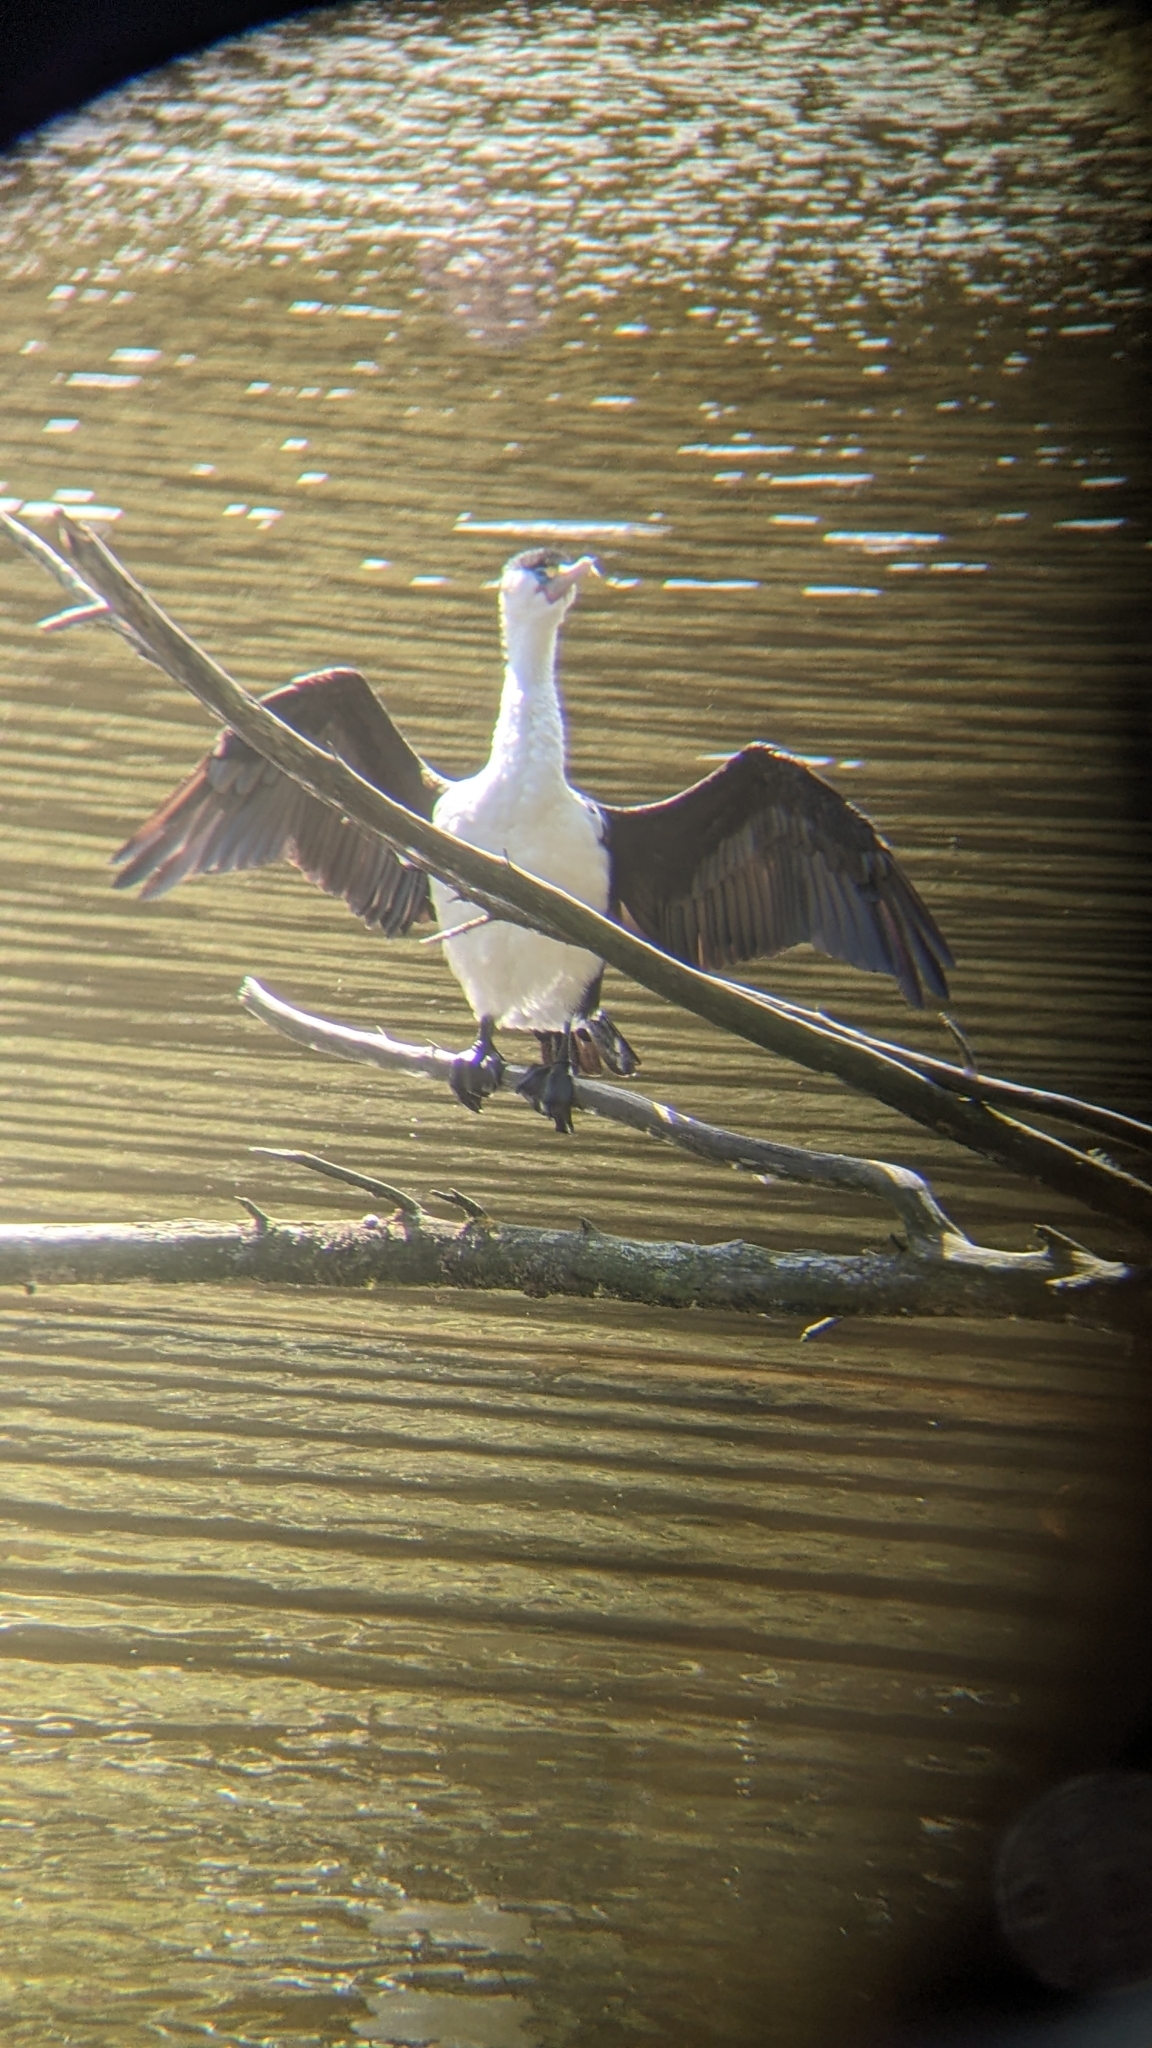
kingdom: Animalia
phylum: Chordata
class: Aves
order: Suliformes
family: Phalacrocoracidae
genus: Phalacrocorax
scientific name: Phalacrocorax varius
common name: Pied cormorant
